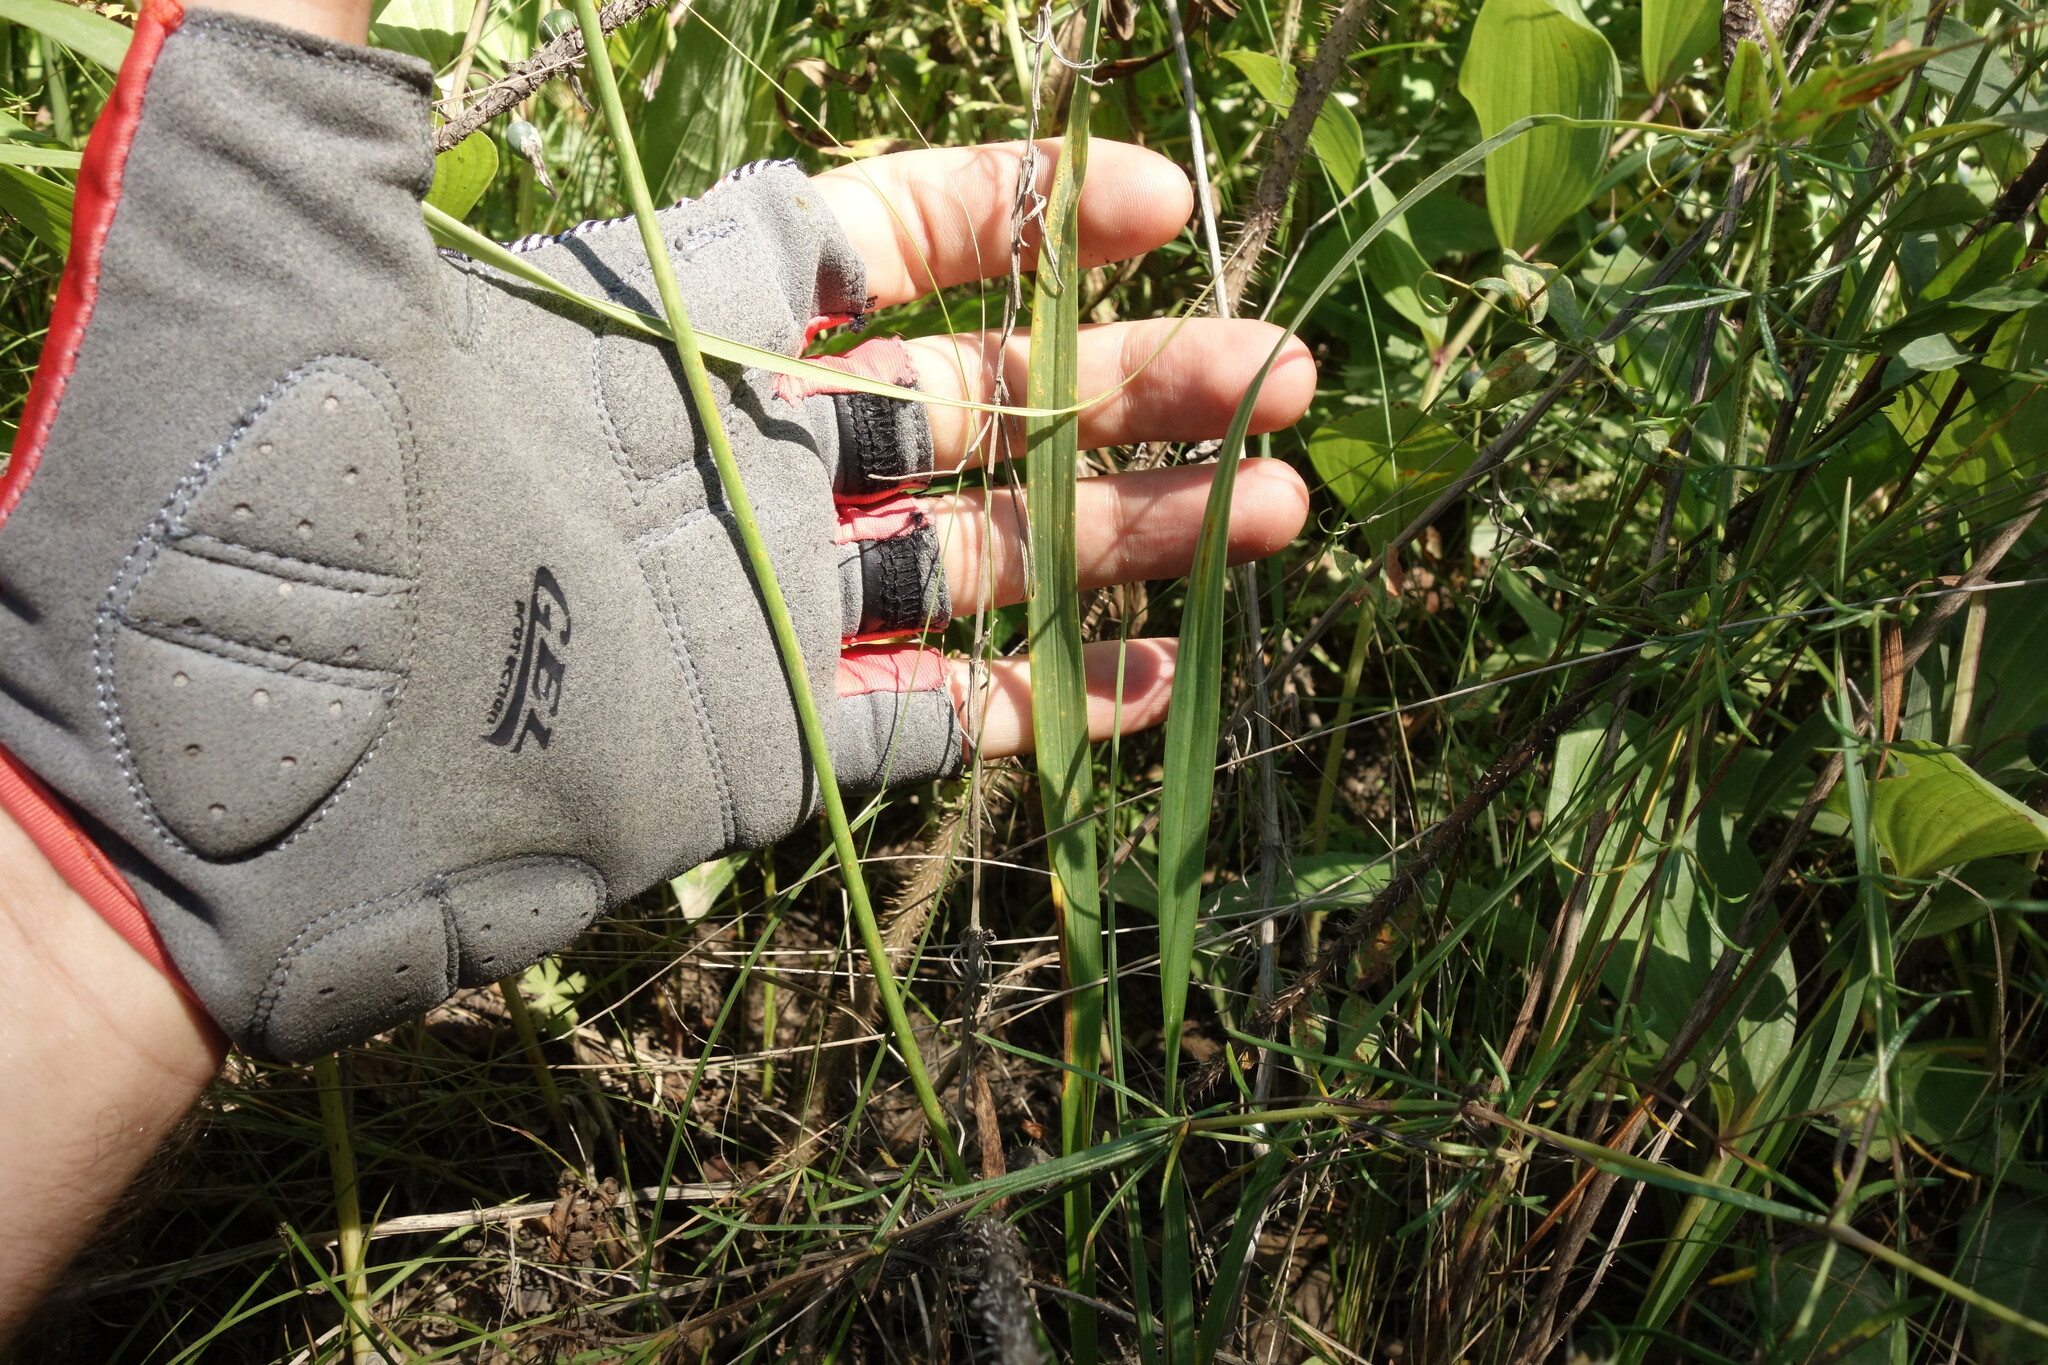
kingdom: Plantae
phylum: Tracheophyta
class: Liliopsida
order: Asparagales
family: Asphodelaceae
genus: Hemerocallis
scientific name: Hemerocallis minor
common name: Small daylily
